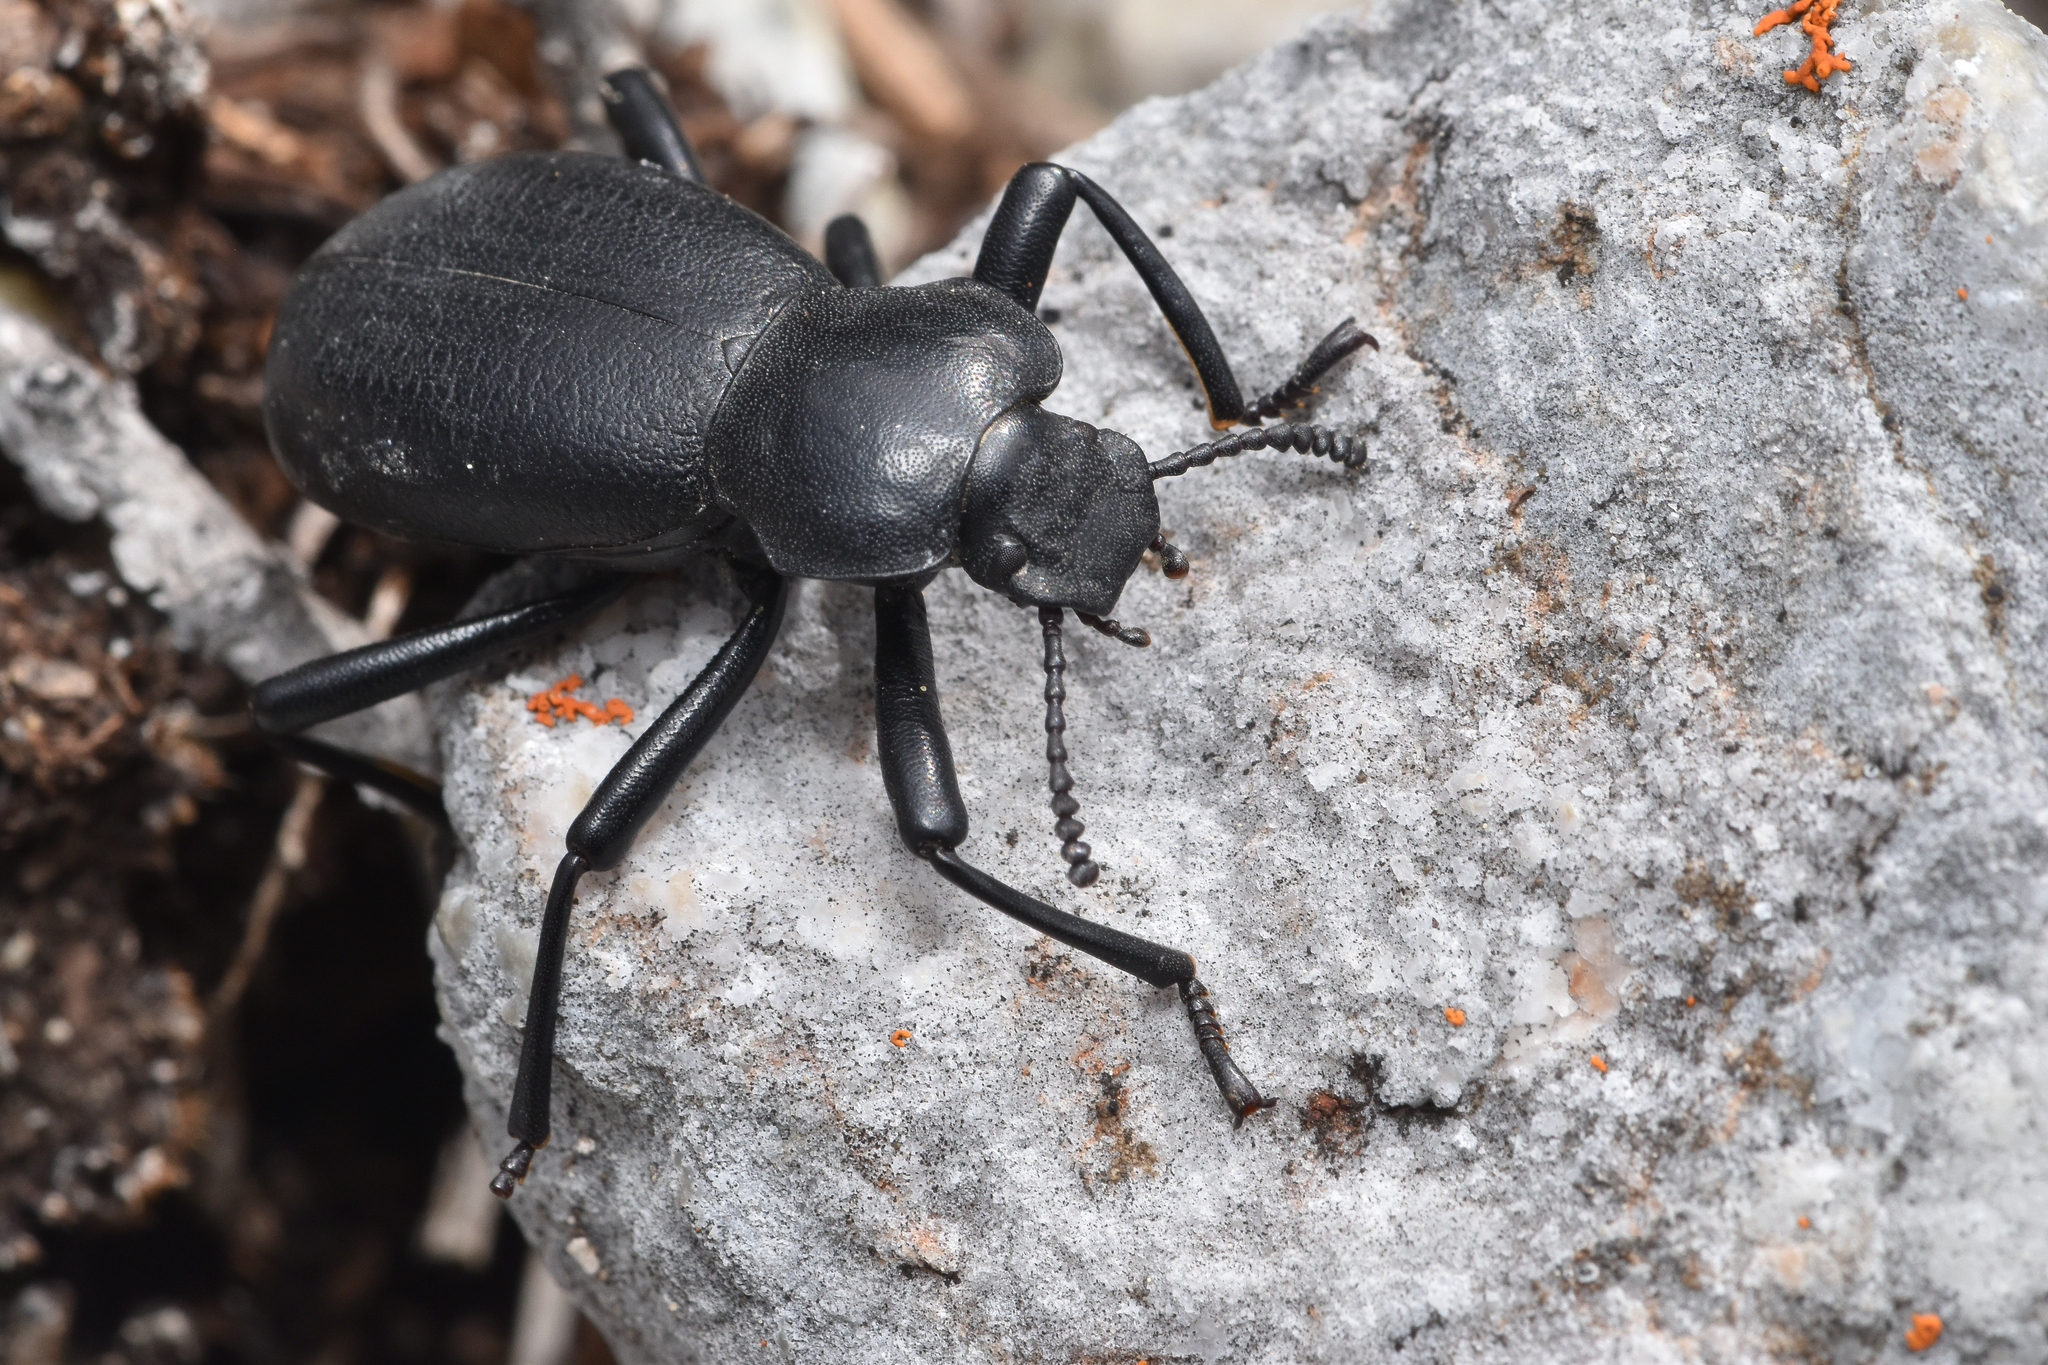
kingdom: Animalia
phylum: Arthropoda
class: Insecta
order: Coleoptera
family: Tenebrionidae
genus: Coelocnemis
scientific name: Coelocnemis dilaticollis
